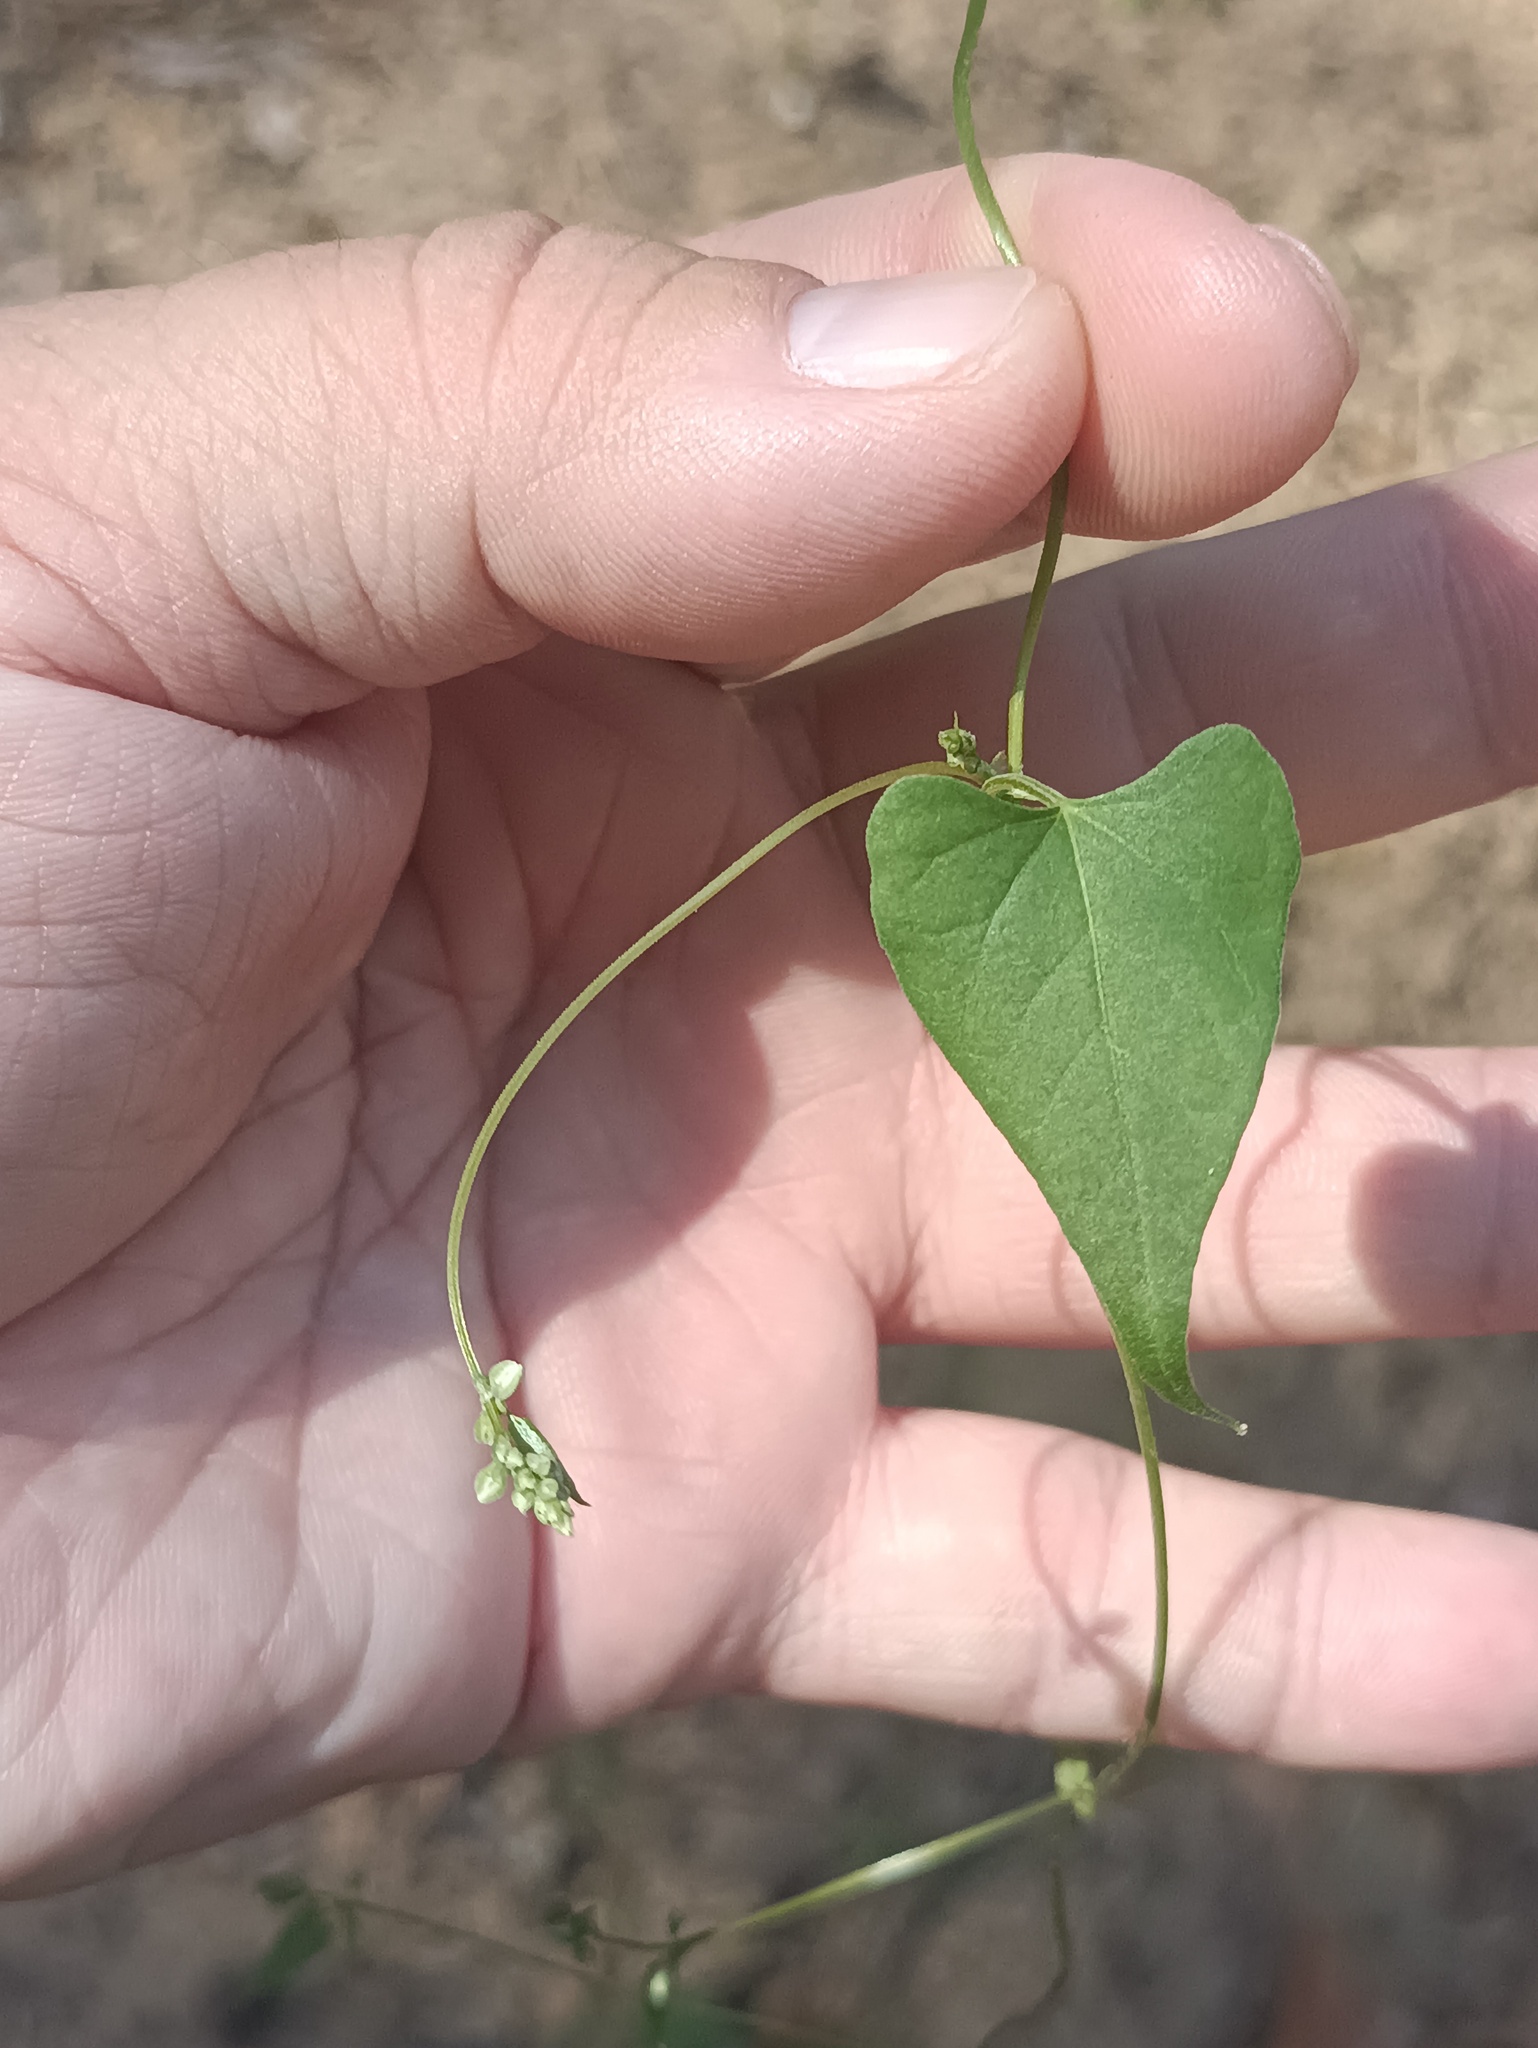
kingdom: Plantae
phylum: Tracheophyta
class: Magnoliopsida
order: Caryophyllales
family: Polygonaceae
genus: Fallopia
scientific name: Fallopia convolvulus
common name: Black bindweed
